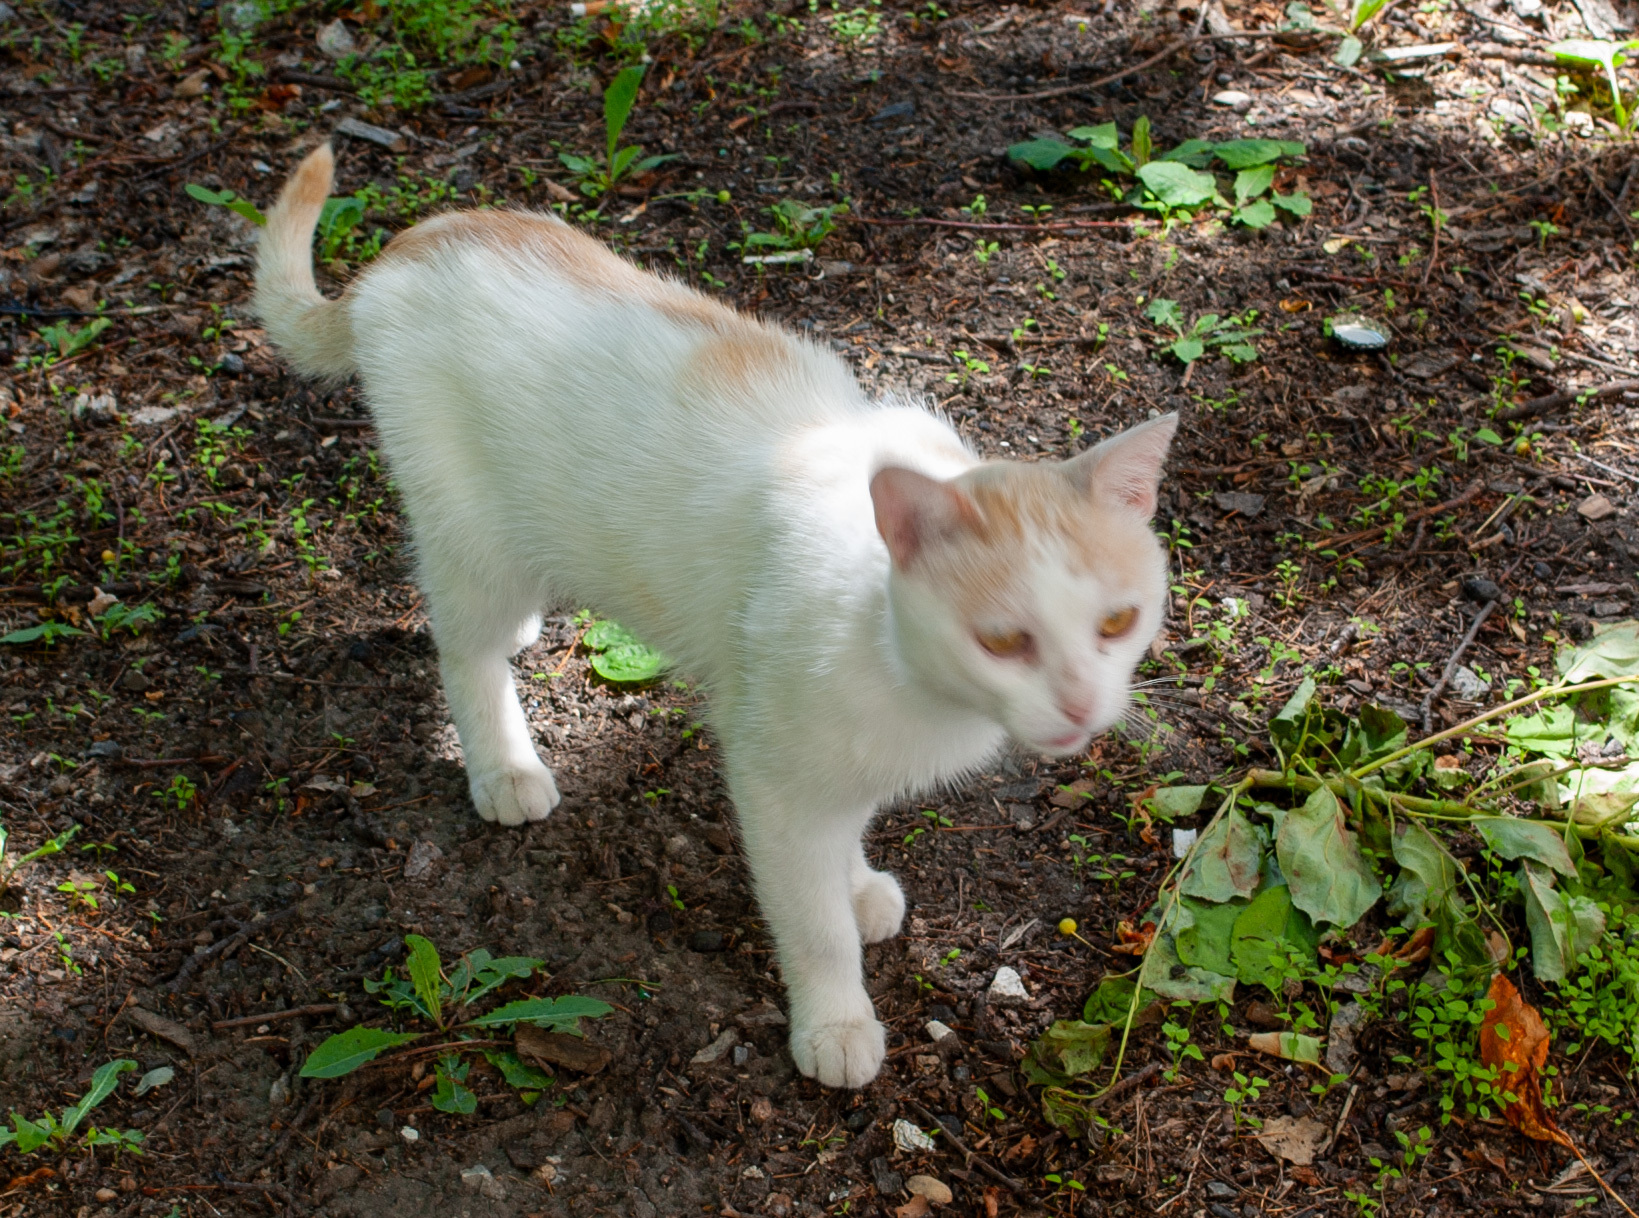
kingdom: Animalia
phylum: Chordata
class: Mammalia
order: Carnivora
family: Felidae
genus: Felis
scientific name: Felis catus
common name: Domestic cat
